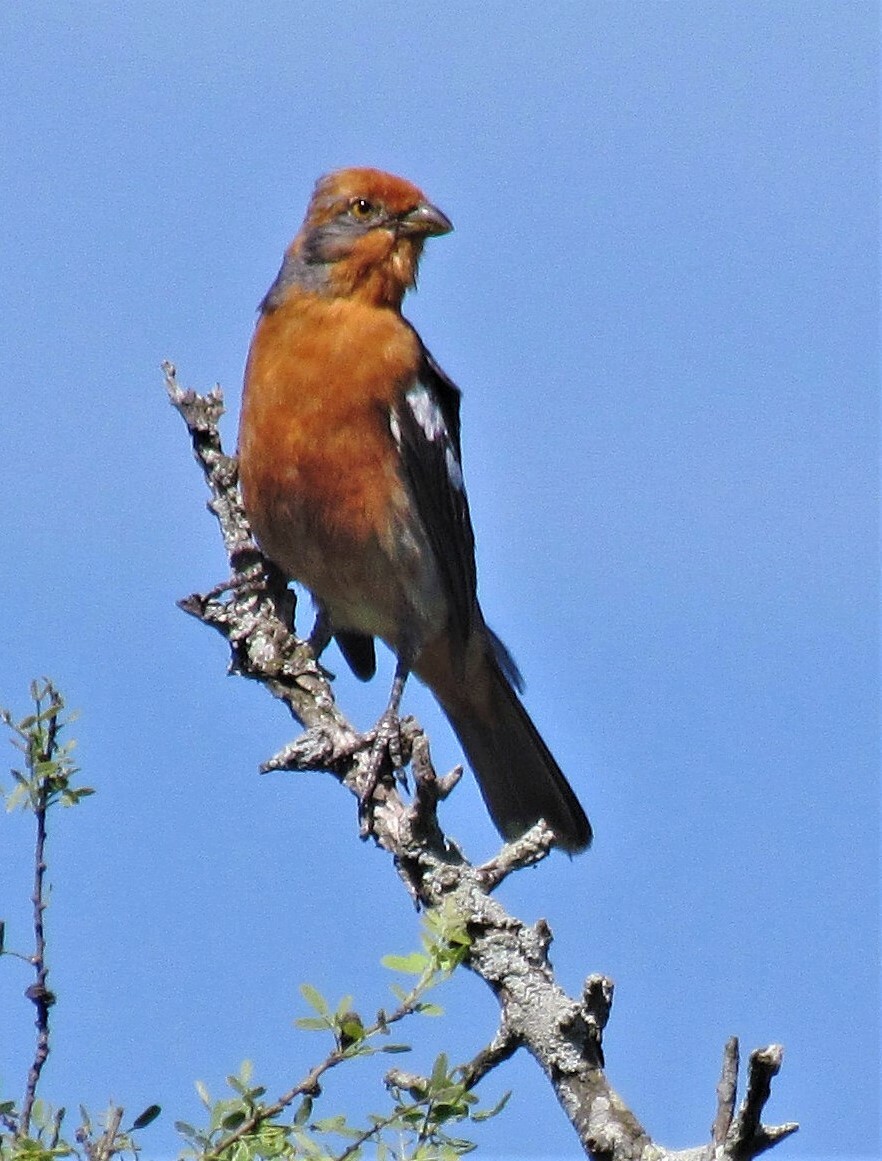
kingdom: Animalia
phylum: Chordata
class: Aves
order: Passeriformes
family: Cotingidae
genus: Phytotoma
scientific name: Phytotoma rutila
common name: White-tipped plantcutter
